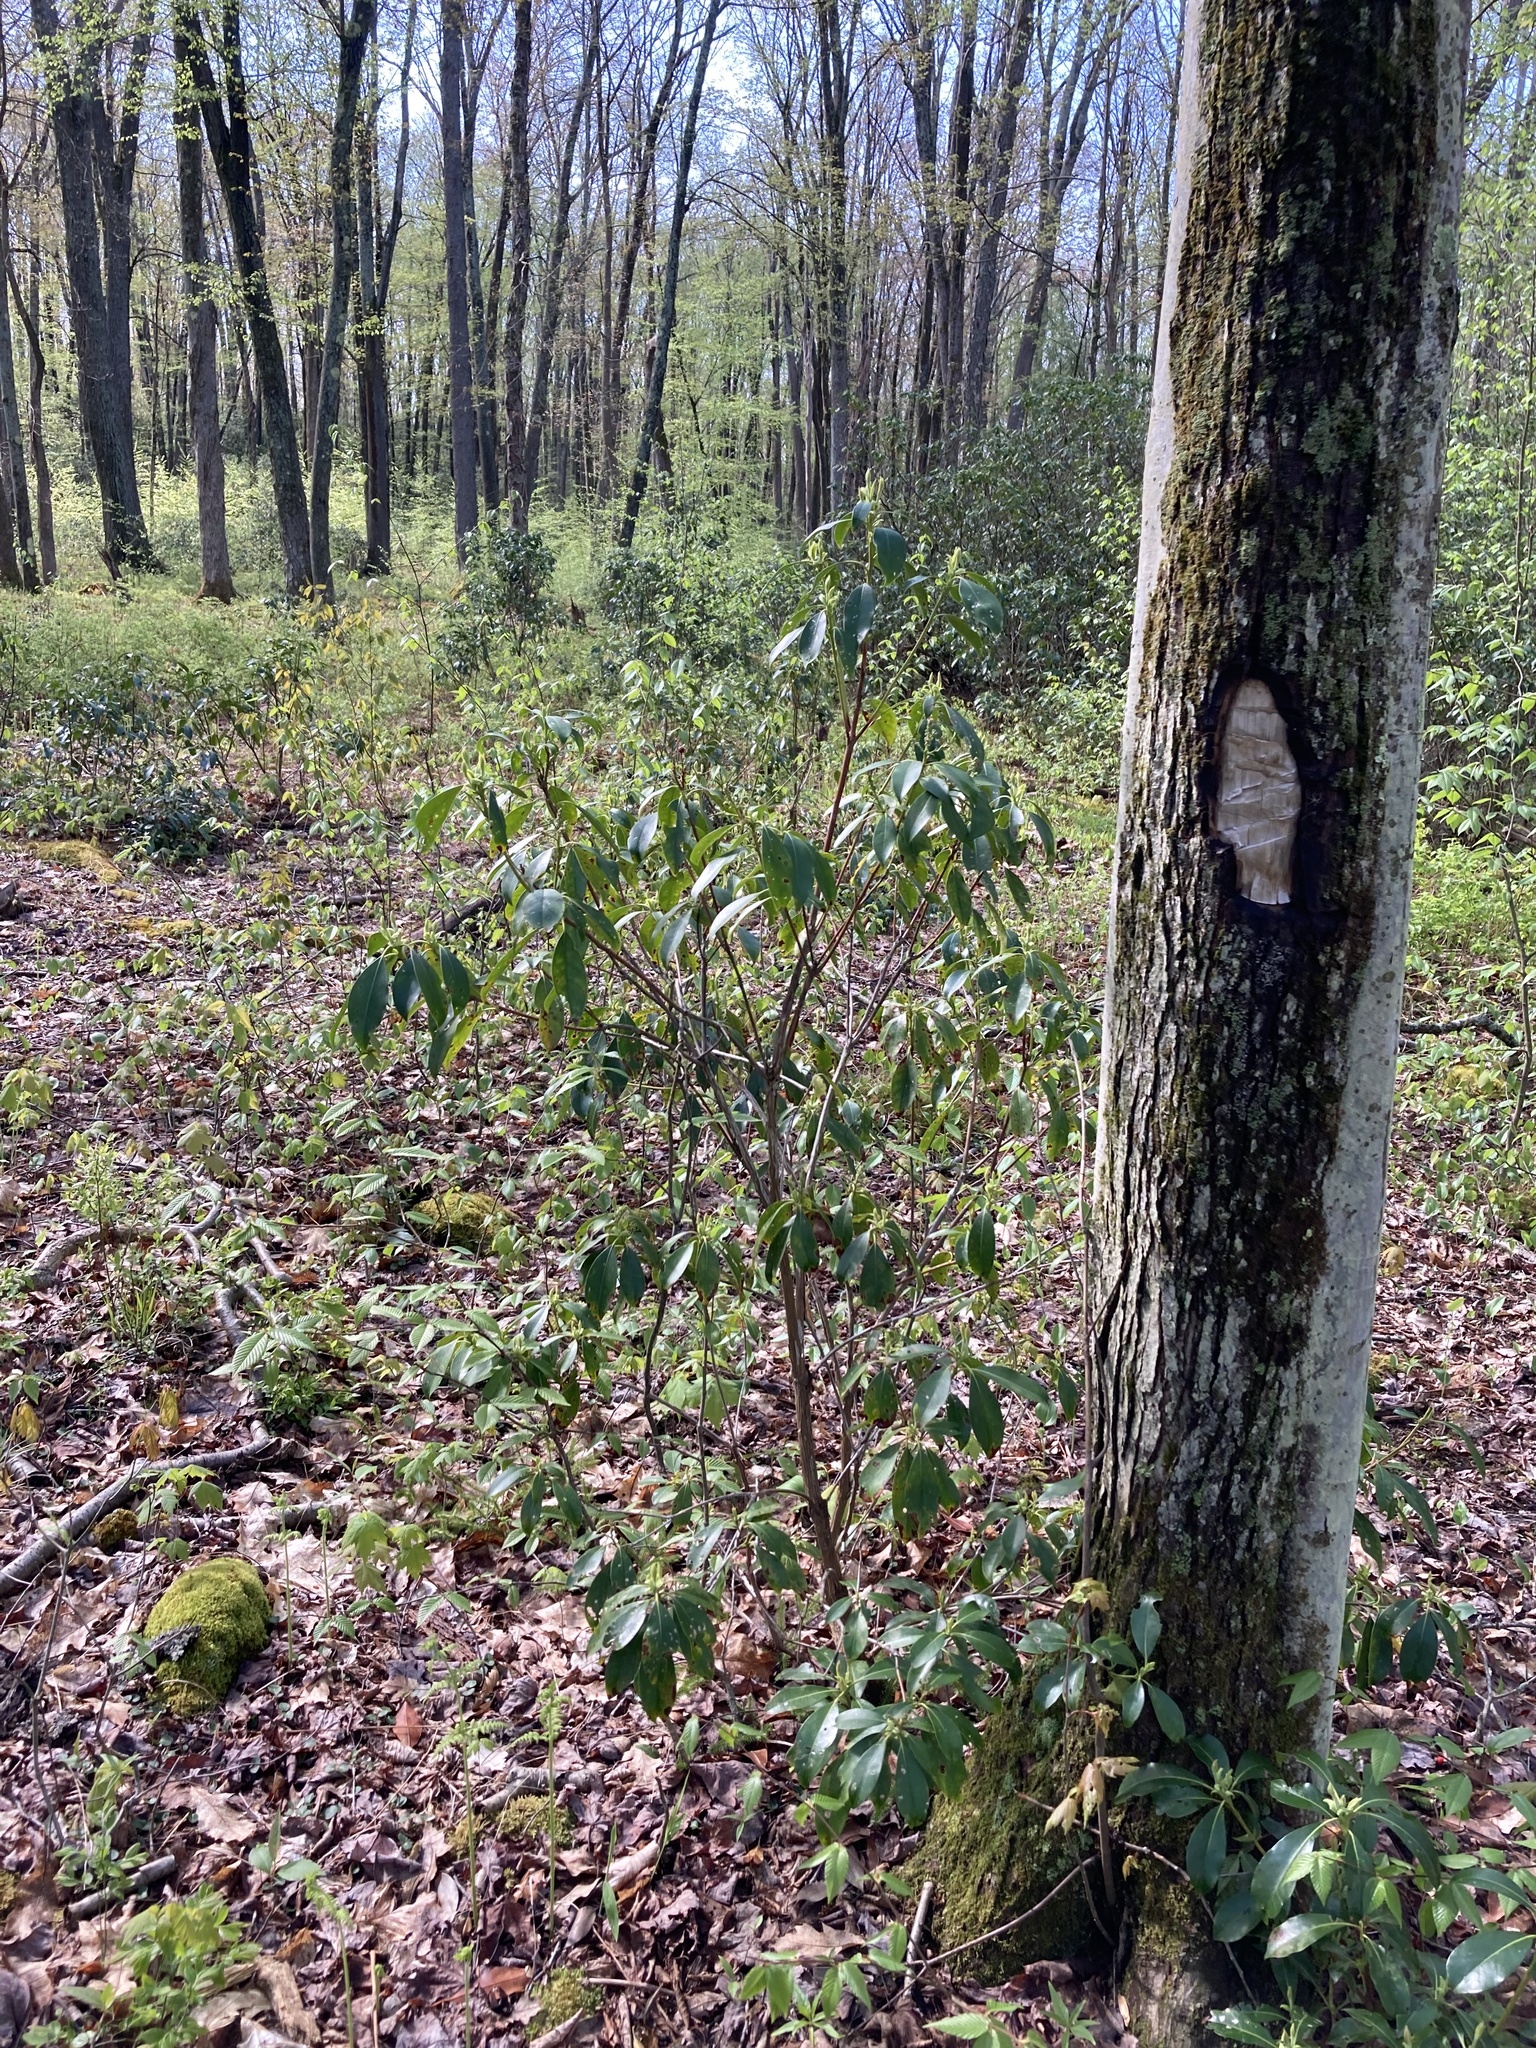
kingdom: Plantae
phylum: Tracheophyta
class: Magnoliopsida
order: Ericales
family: Ericaceae
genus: Kalmia
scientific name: Kalmia latifolia
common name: Mountain-laurel
